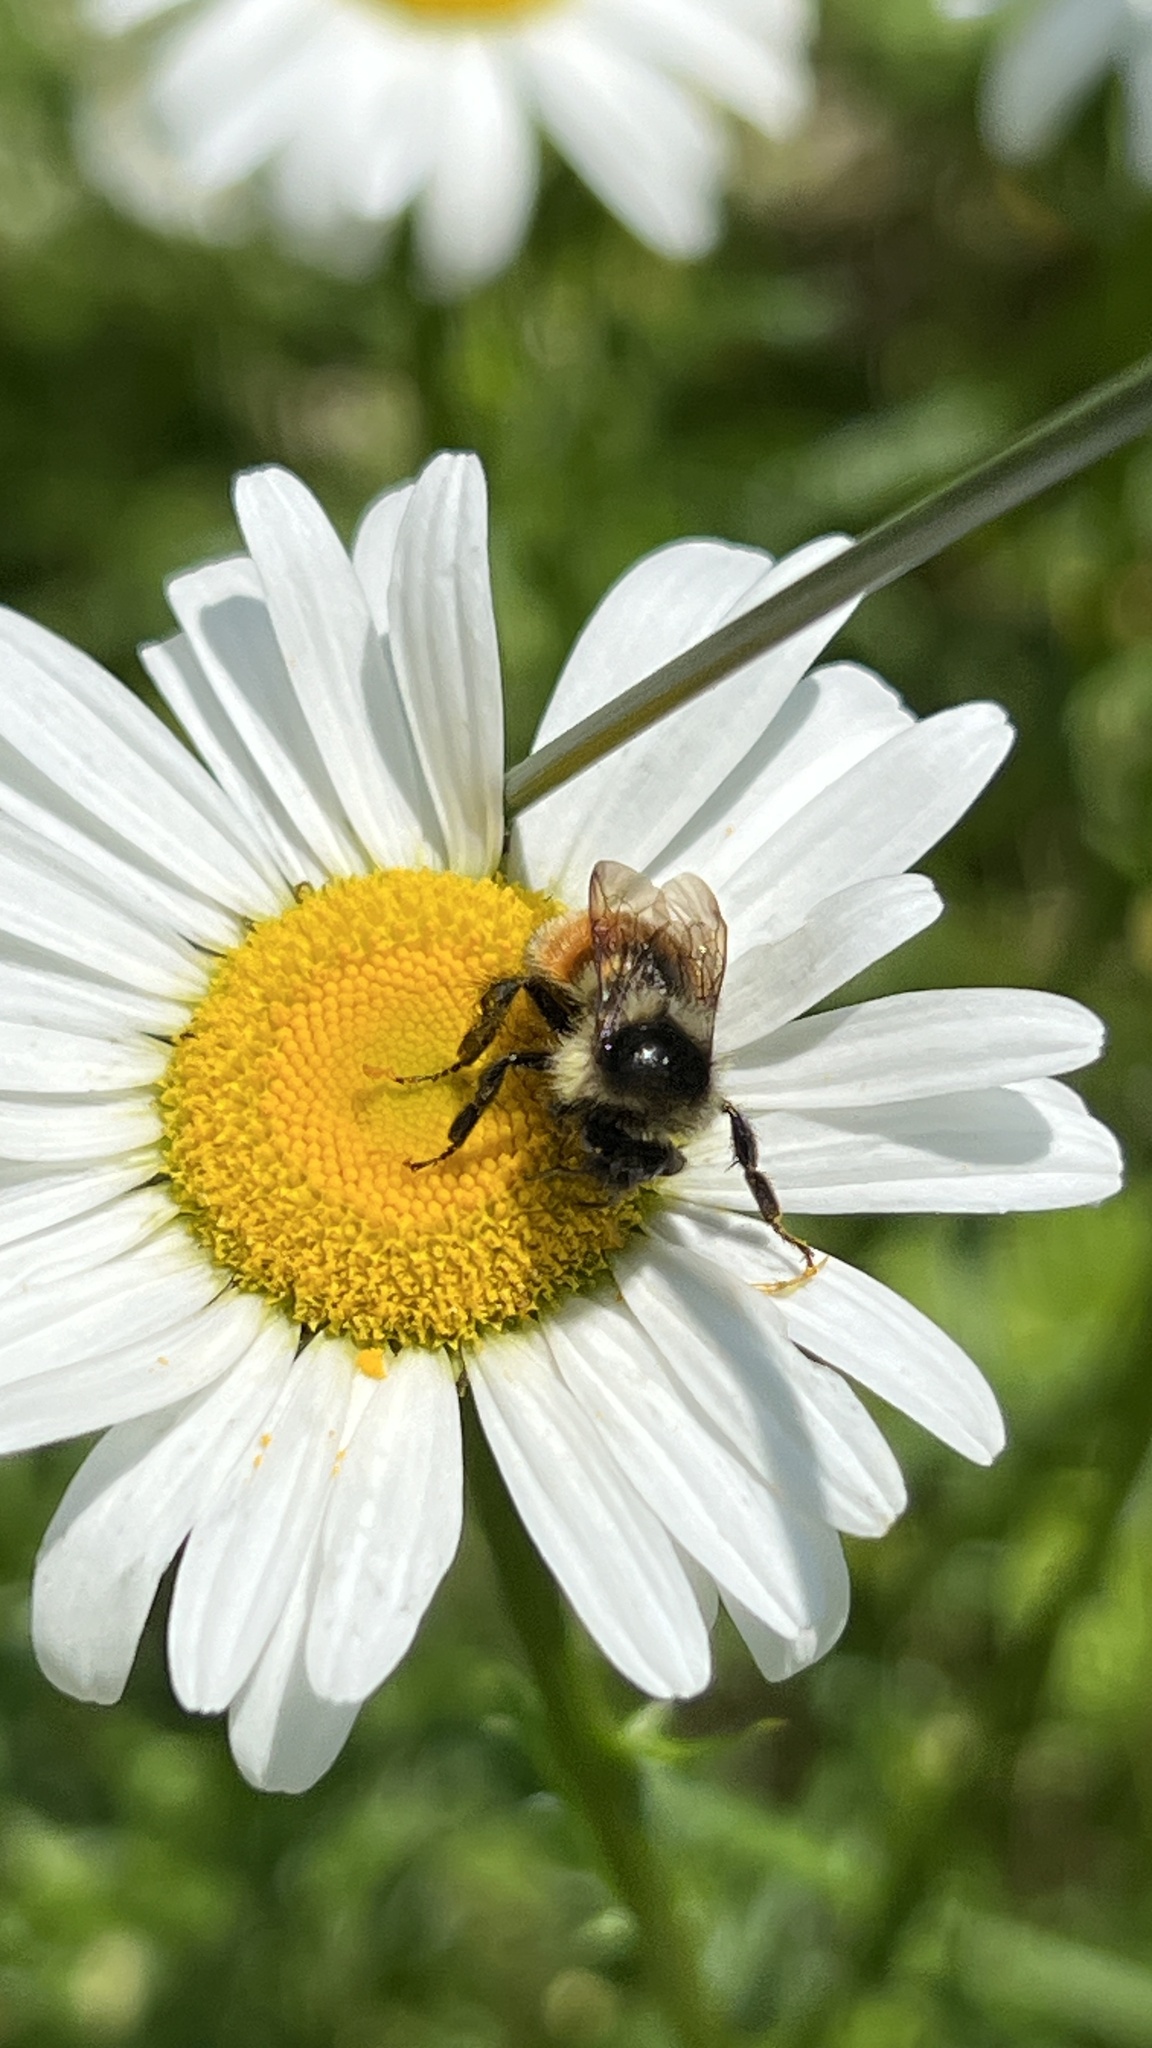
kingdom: Animalia
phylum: Arthropoda
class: Insecta
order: Hymenoptera
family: Apidae
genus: Bombus
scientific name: Bombus ternarius
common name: Tri-colored bumble bee
